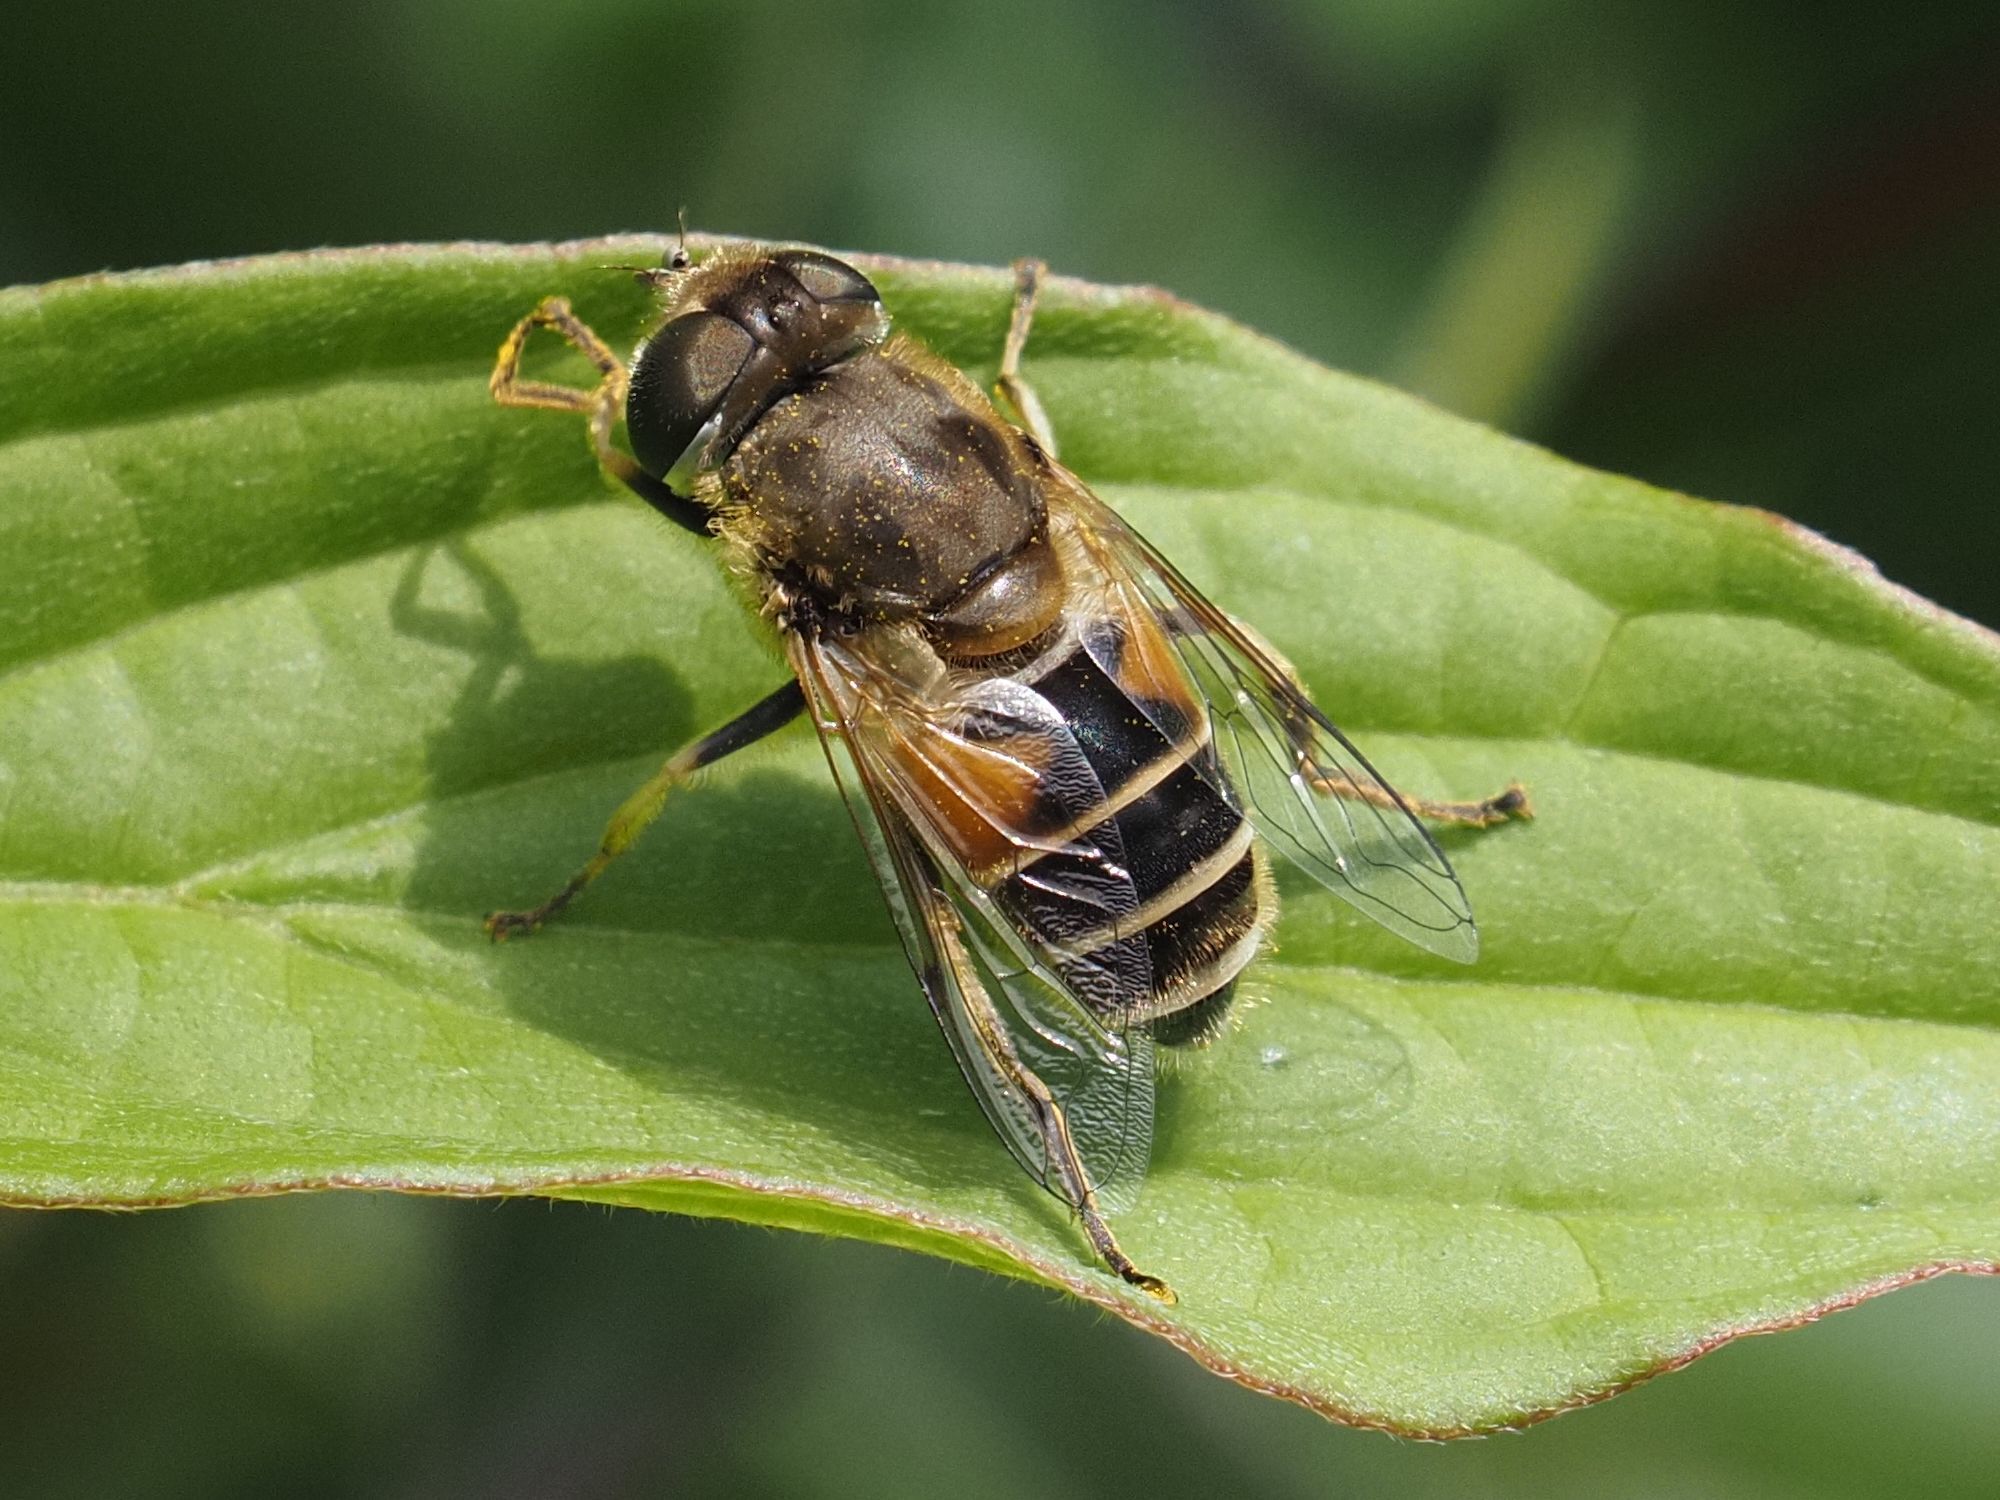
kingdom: Animalia
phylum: Arthropoda
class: Insecta
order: Diptera
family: Syrphidae
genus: Eristalis
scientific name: Eristalis arbustorum
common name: Hover fly
